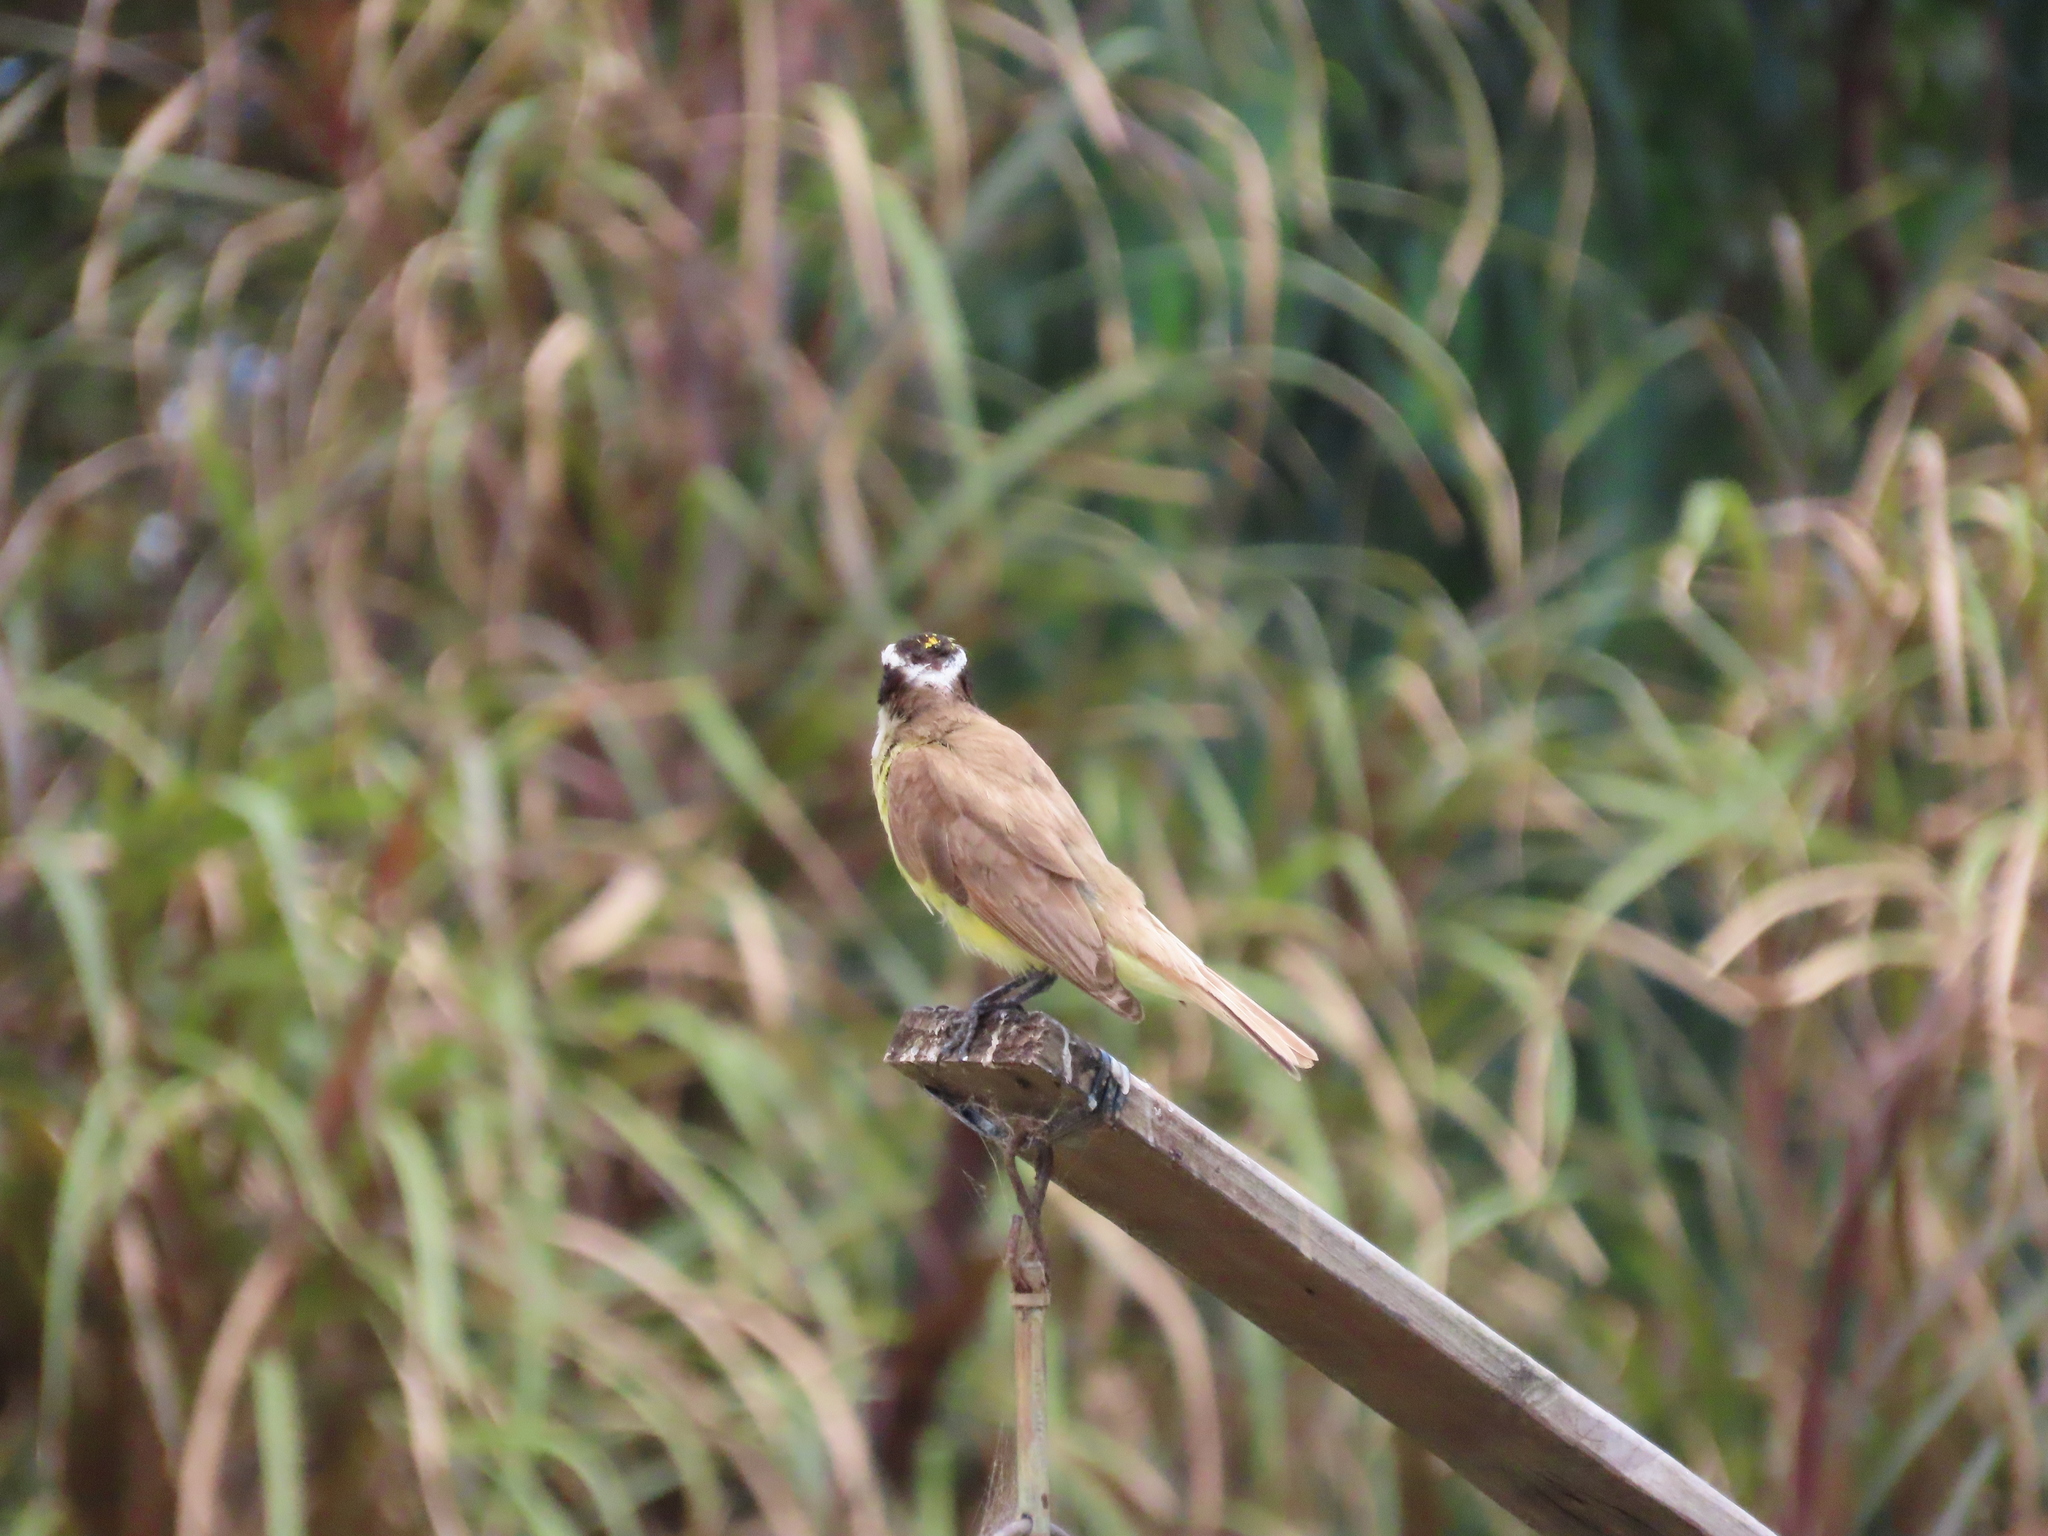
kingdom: Animalia
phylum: Chordata
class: Aves
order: Passeriformes
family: Tyrannidae
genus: Pitangus
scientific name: Pitangus sulphuratus
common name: Great kiskadee
